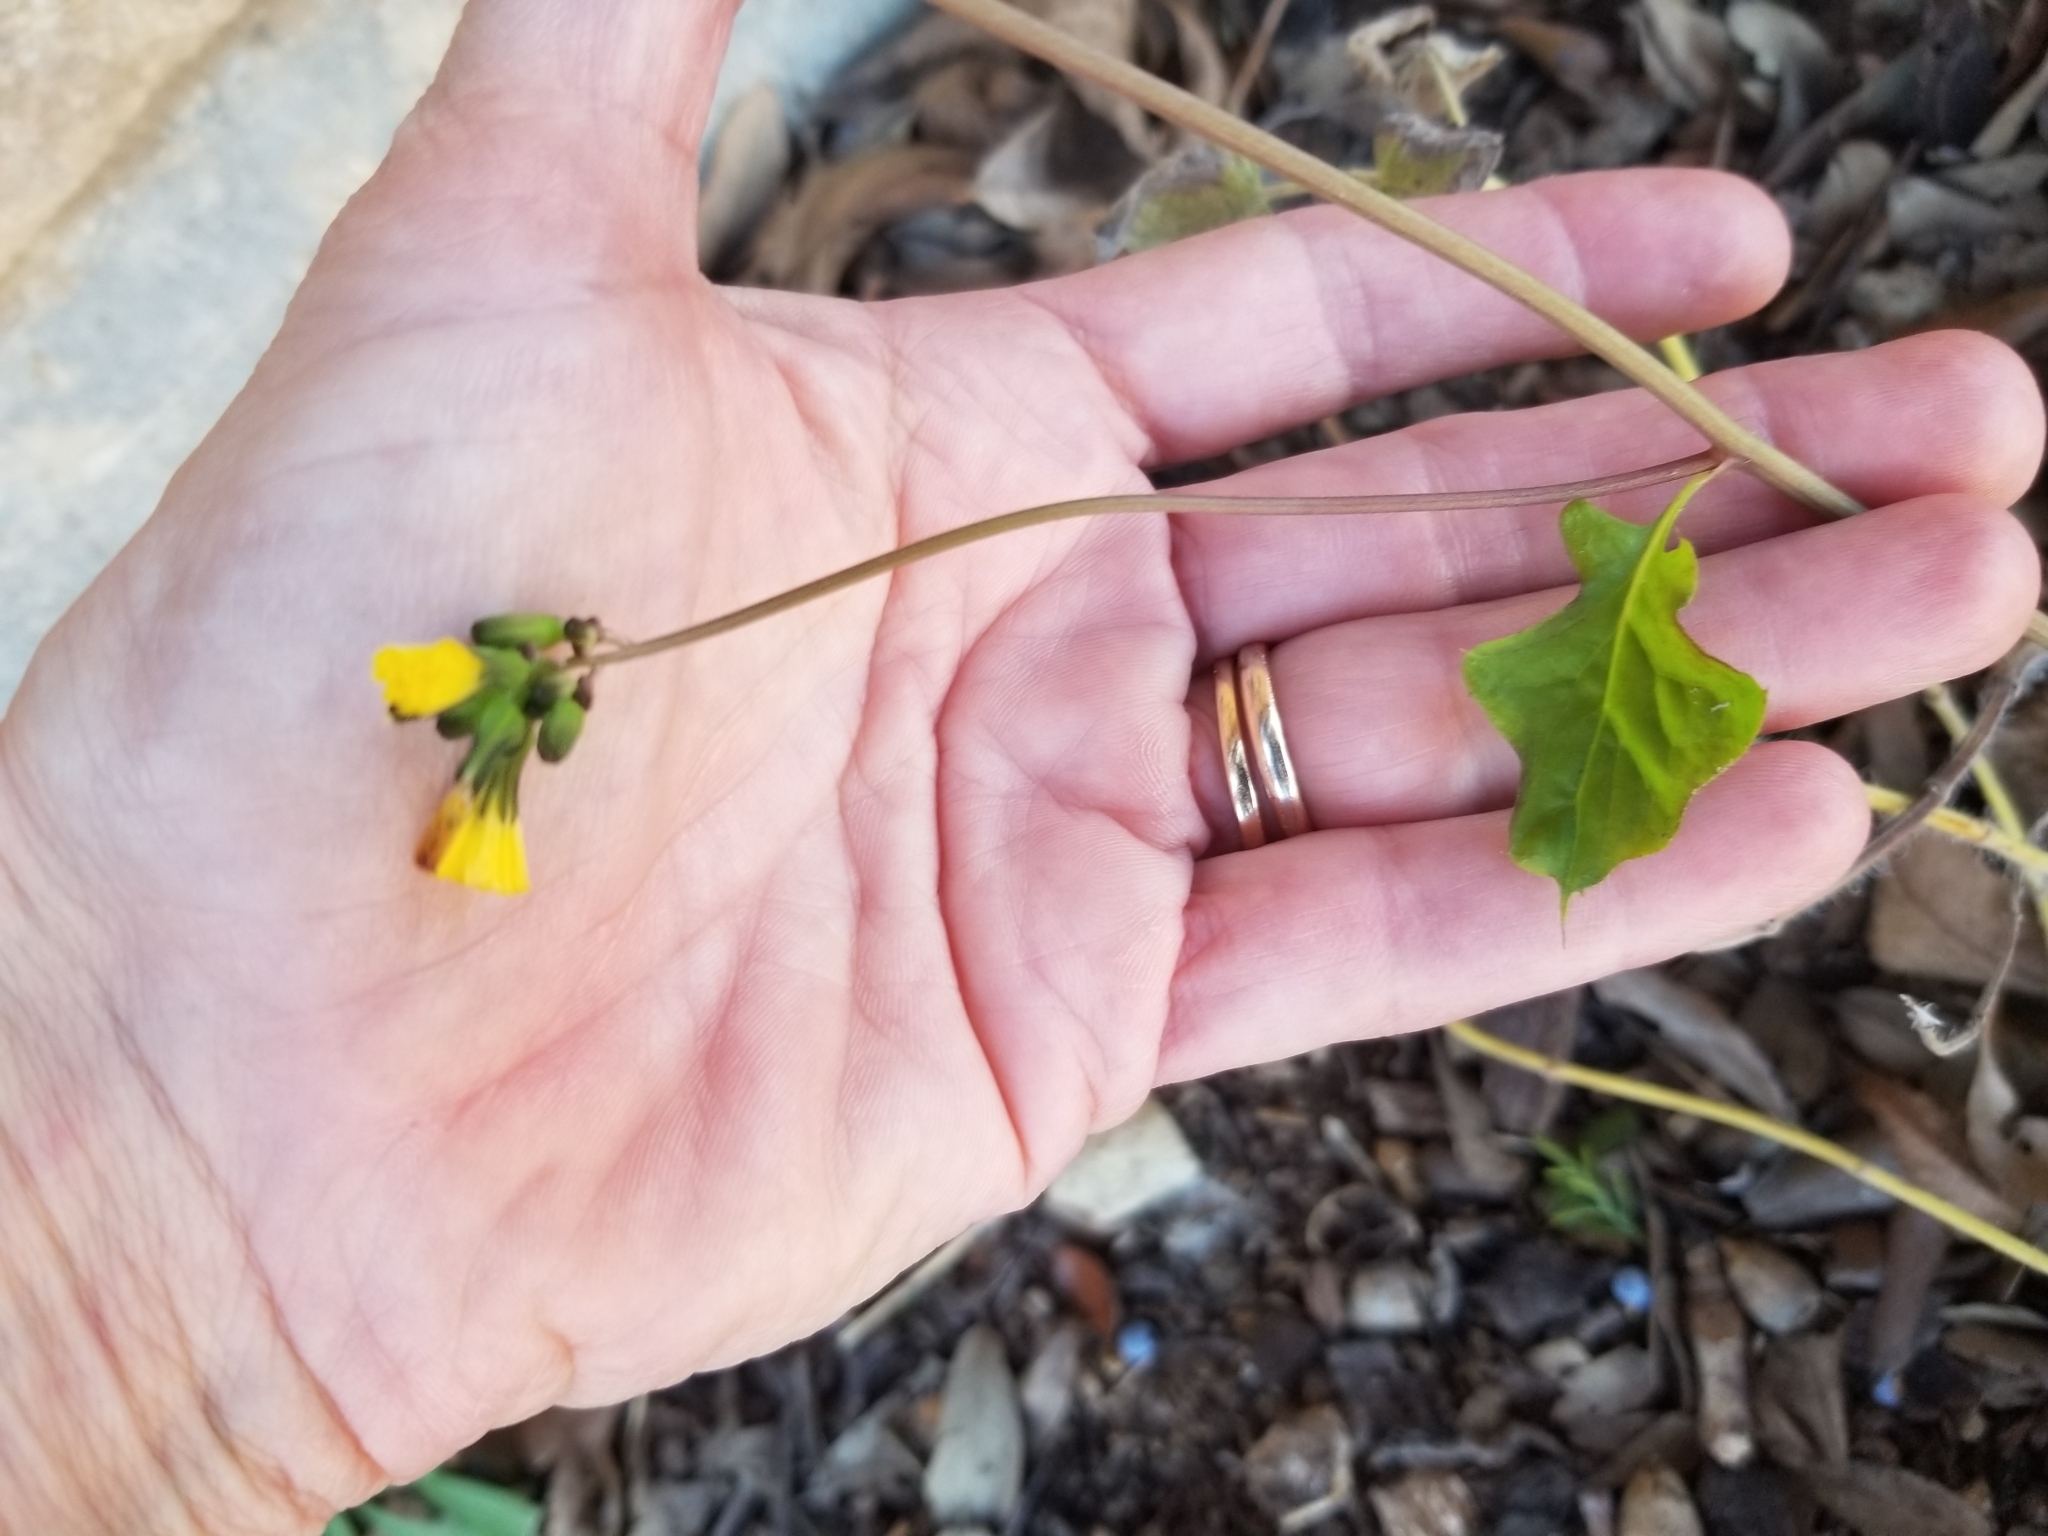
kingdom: Plantae
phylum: Tracheophyta
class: Magnoliopsida
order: Asterales
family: Asteraceae
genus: Youngia
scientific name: Youngia japonica
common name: Oriental false hawksbeard
